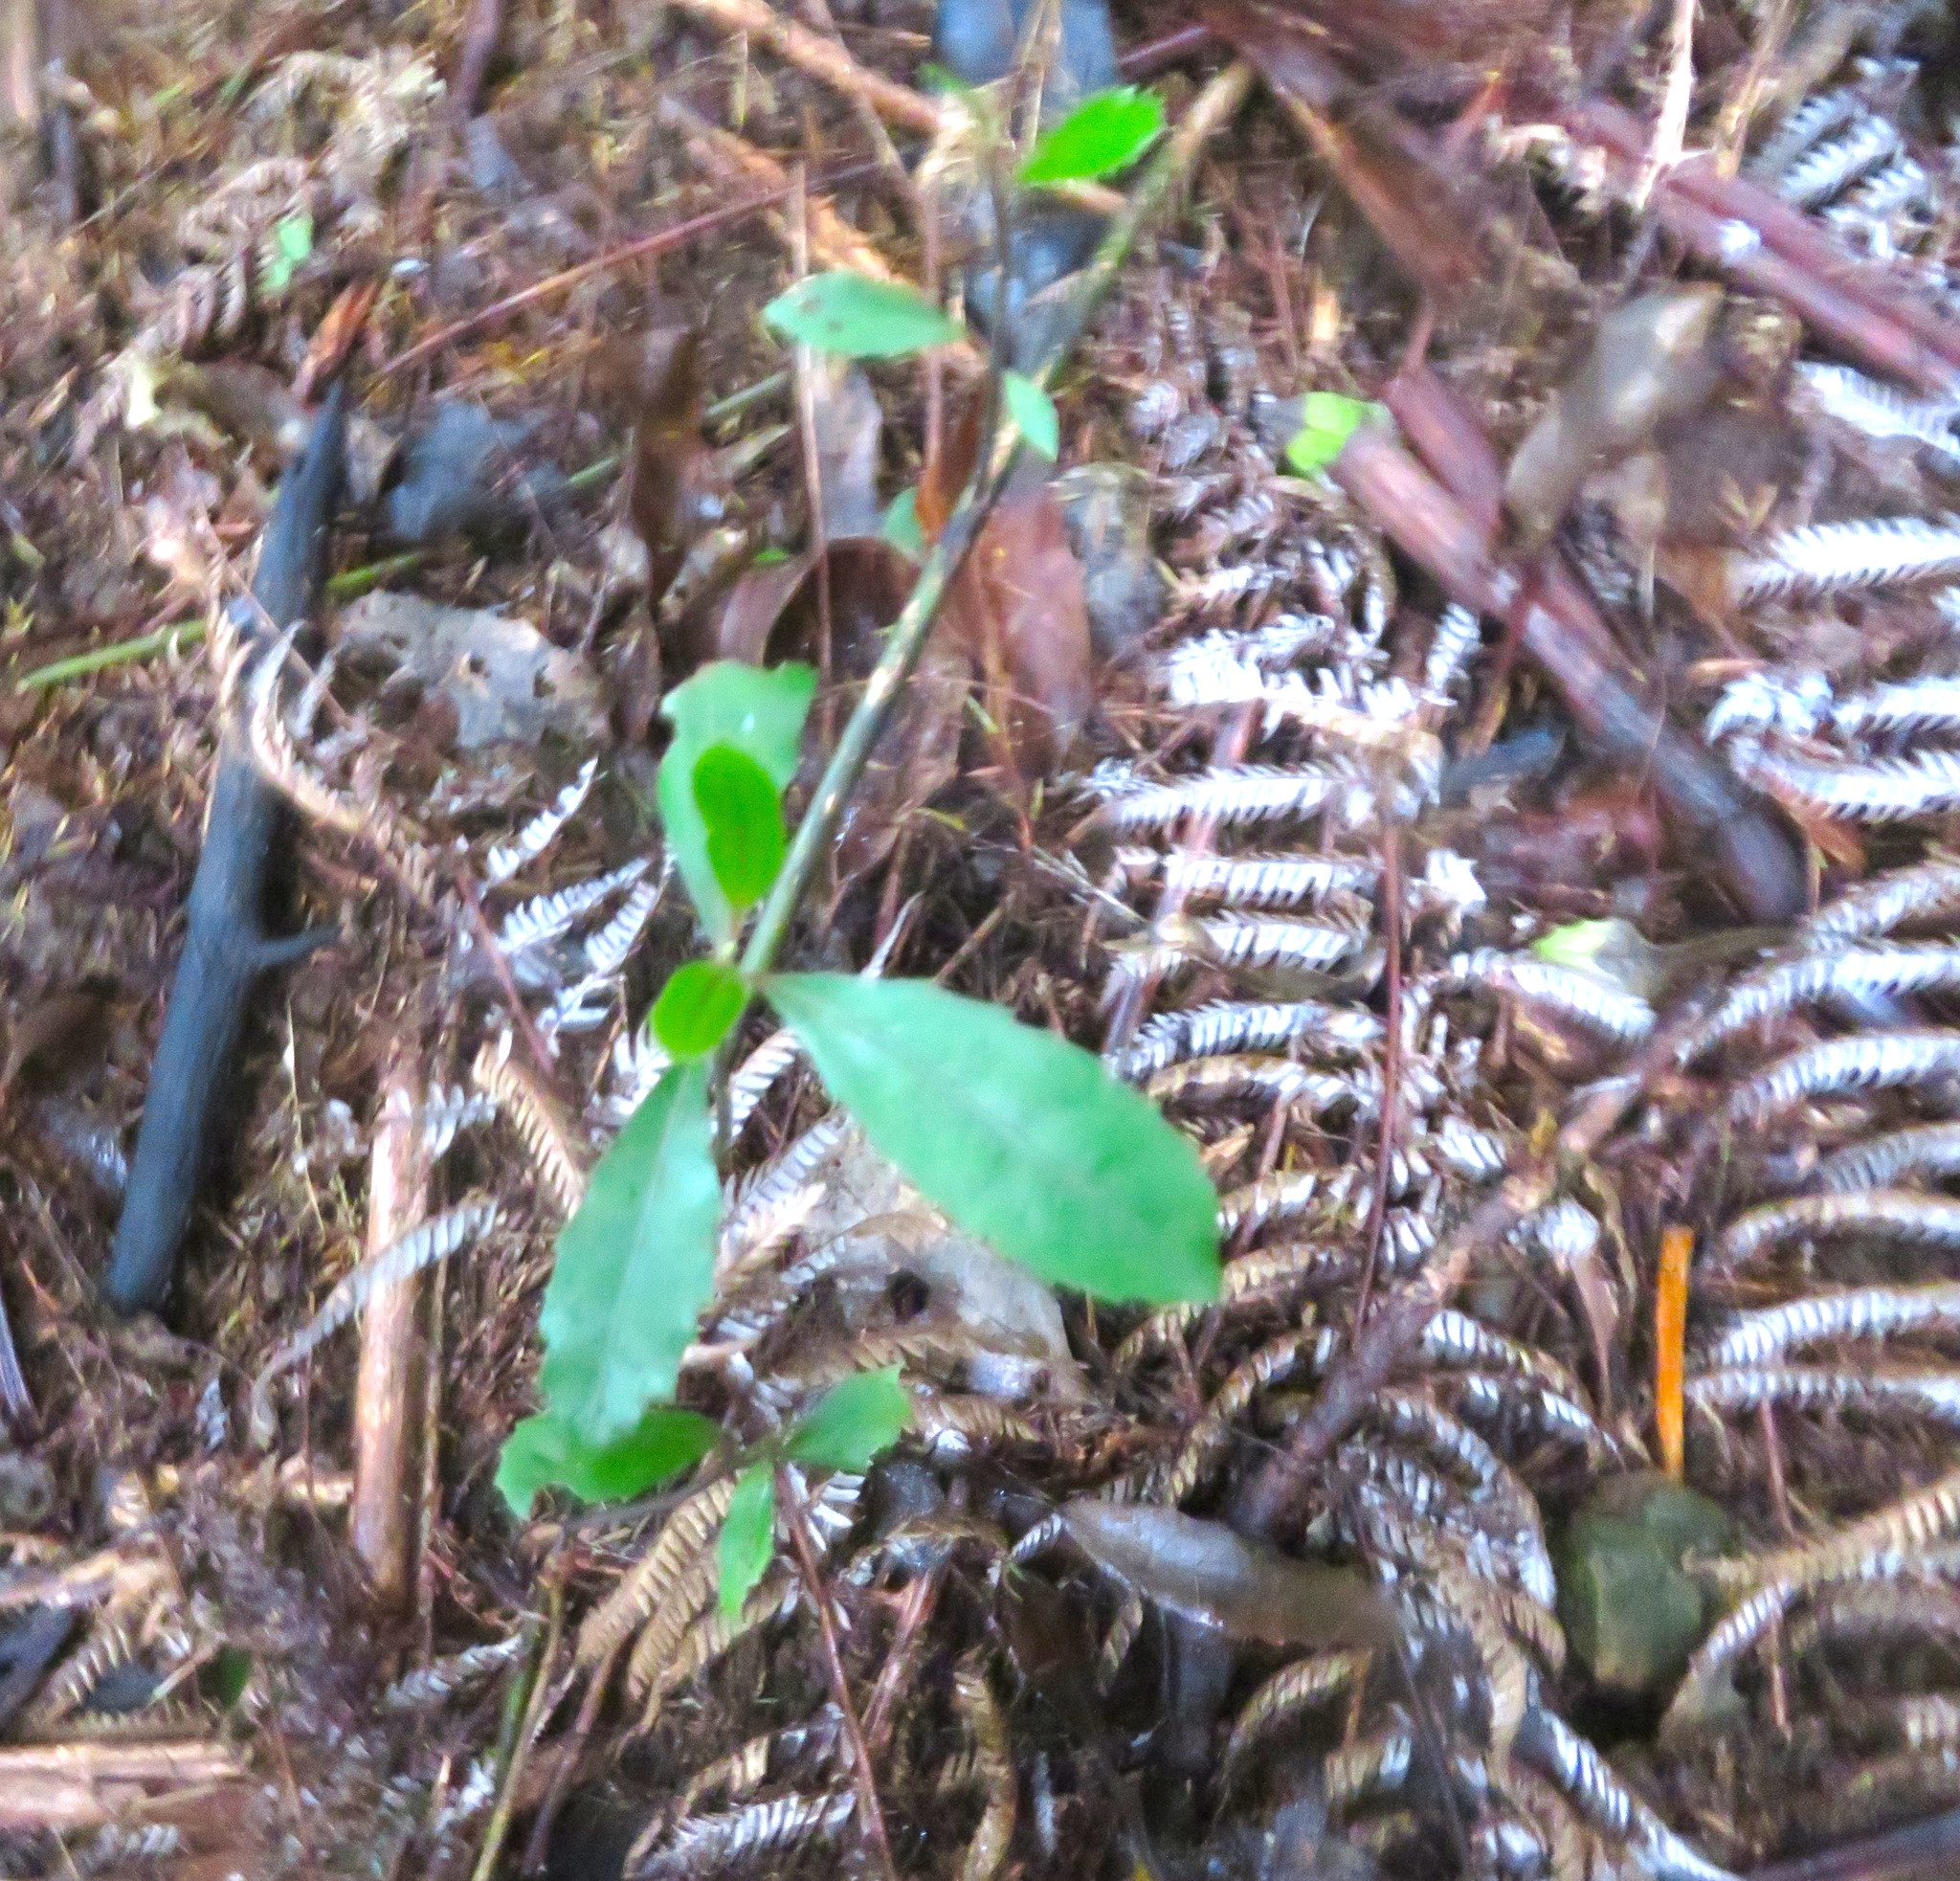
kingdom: Plantae
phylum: Tracheophyta
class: Magnoliopsida
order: Laurales
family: Monimiaceae
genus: Hedycarya
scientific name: Hedycarya arborea
